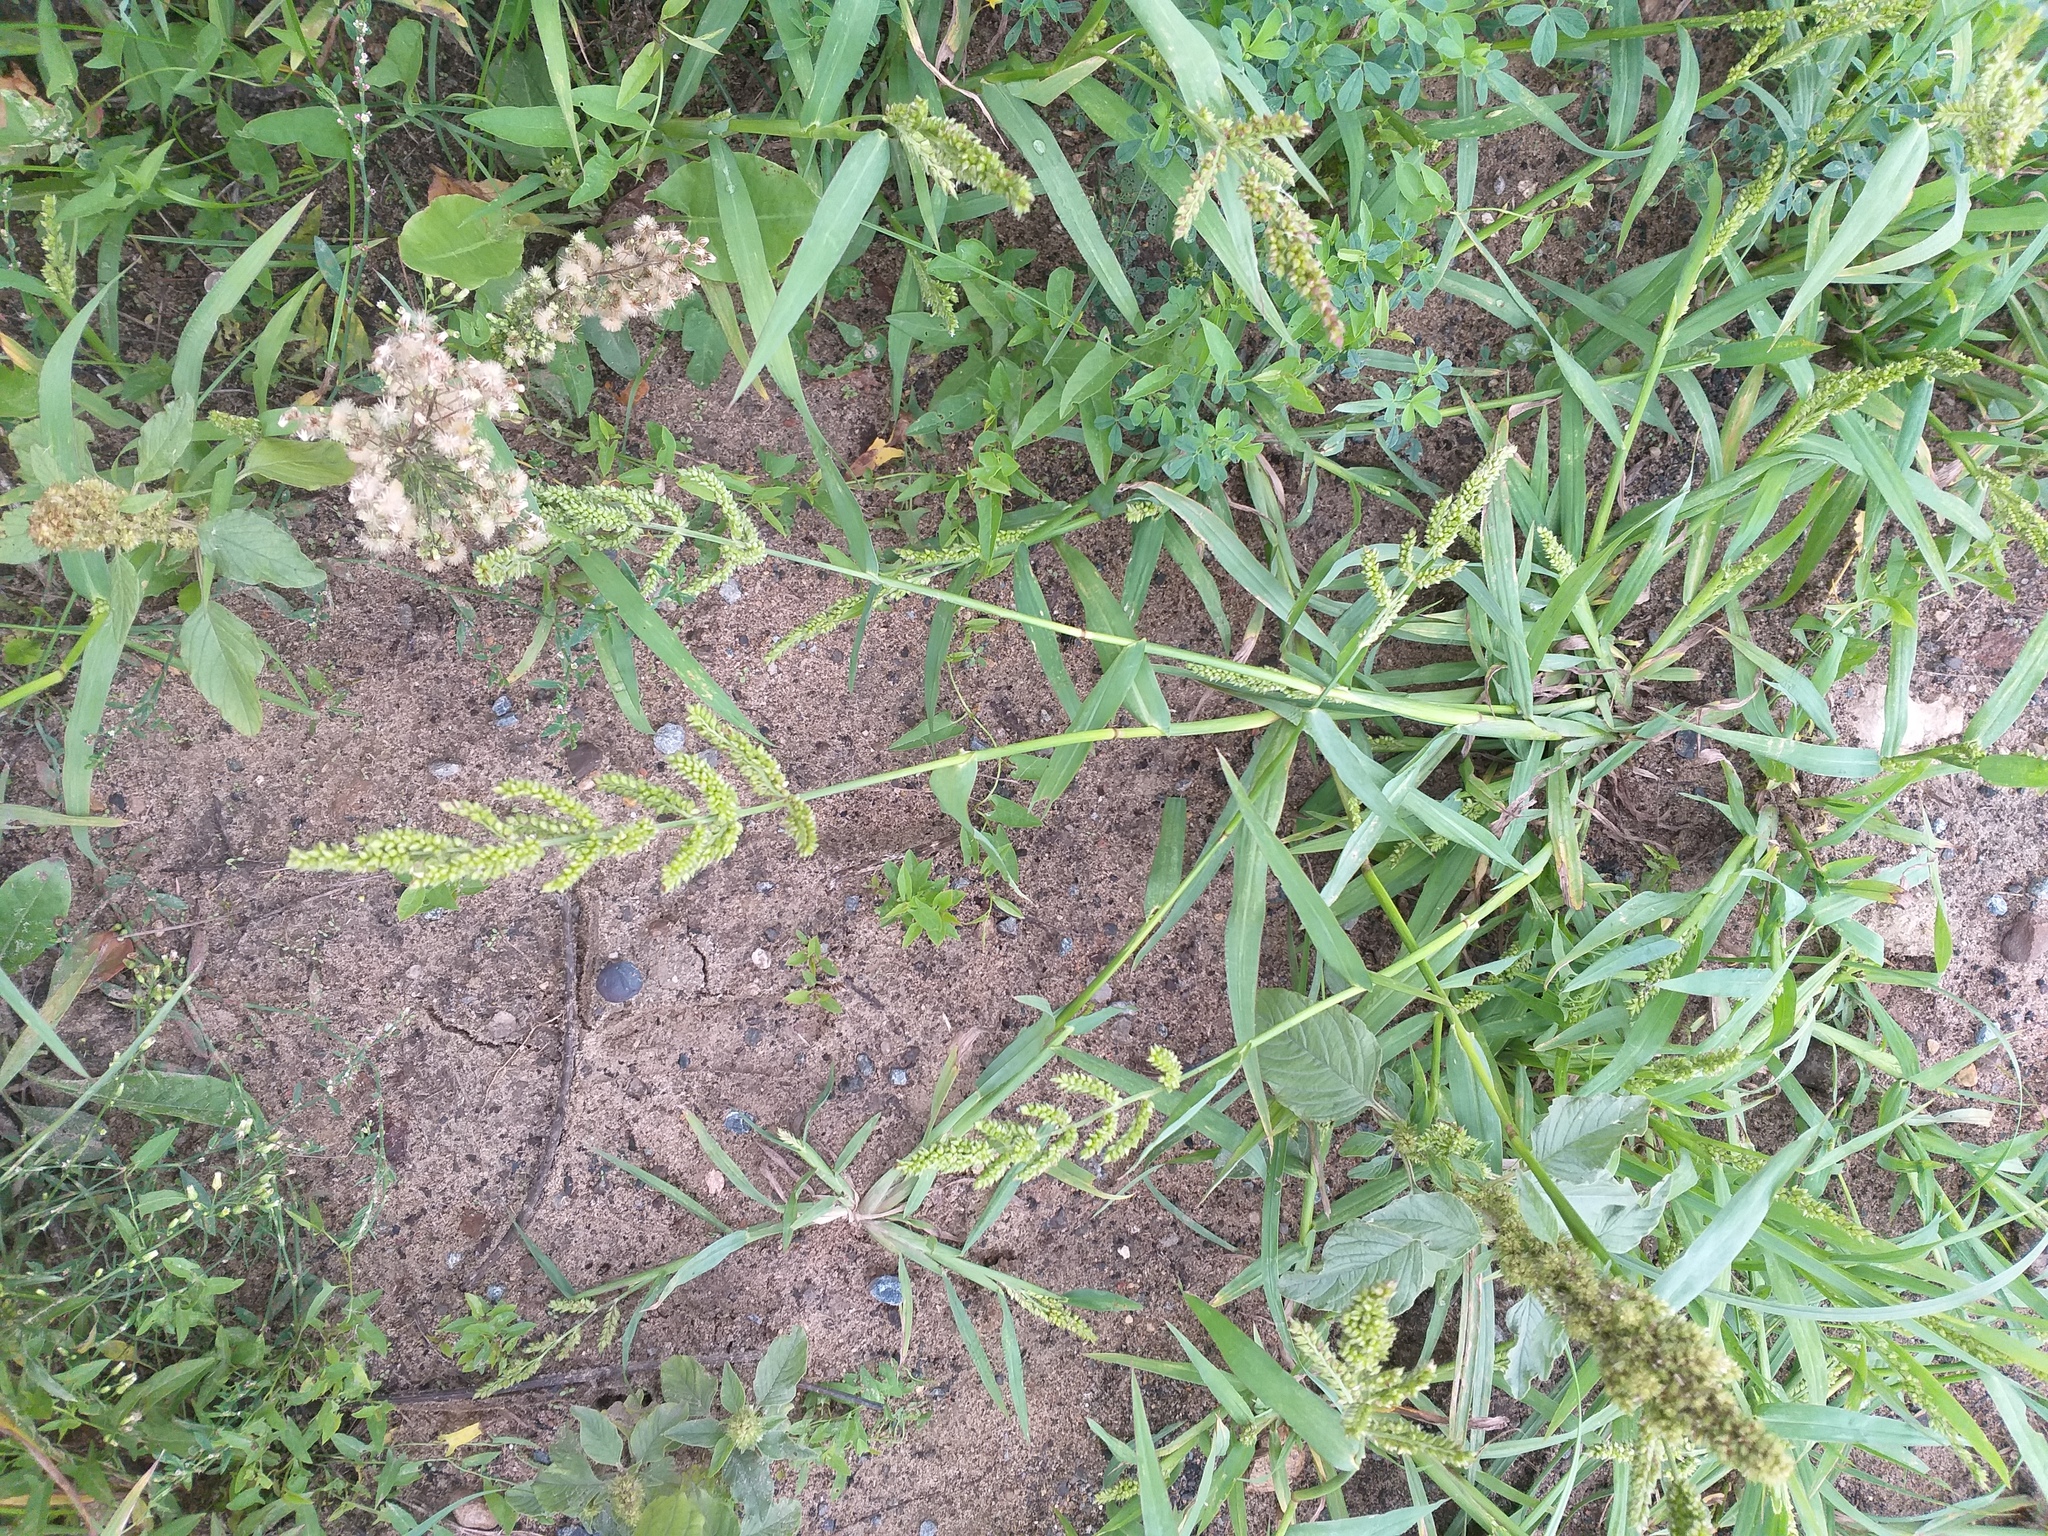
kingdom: Plantae
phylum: Tracheophyta
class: Liliopsida
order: Poales
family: Poaceae
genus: Echinochloa
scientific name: Echinochloa crus-galli
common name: Cockspur
